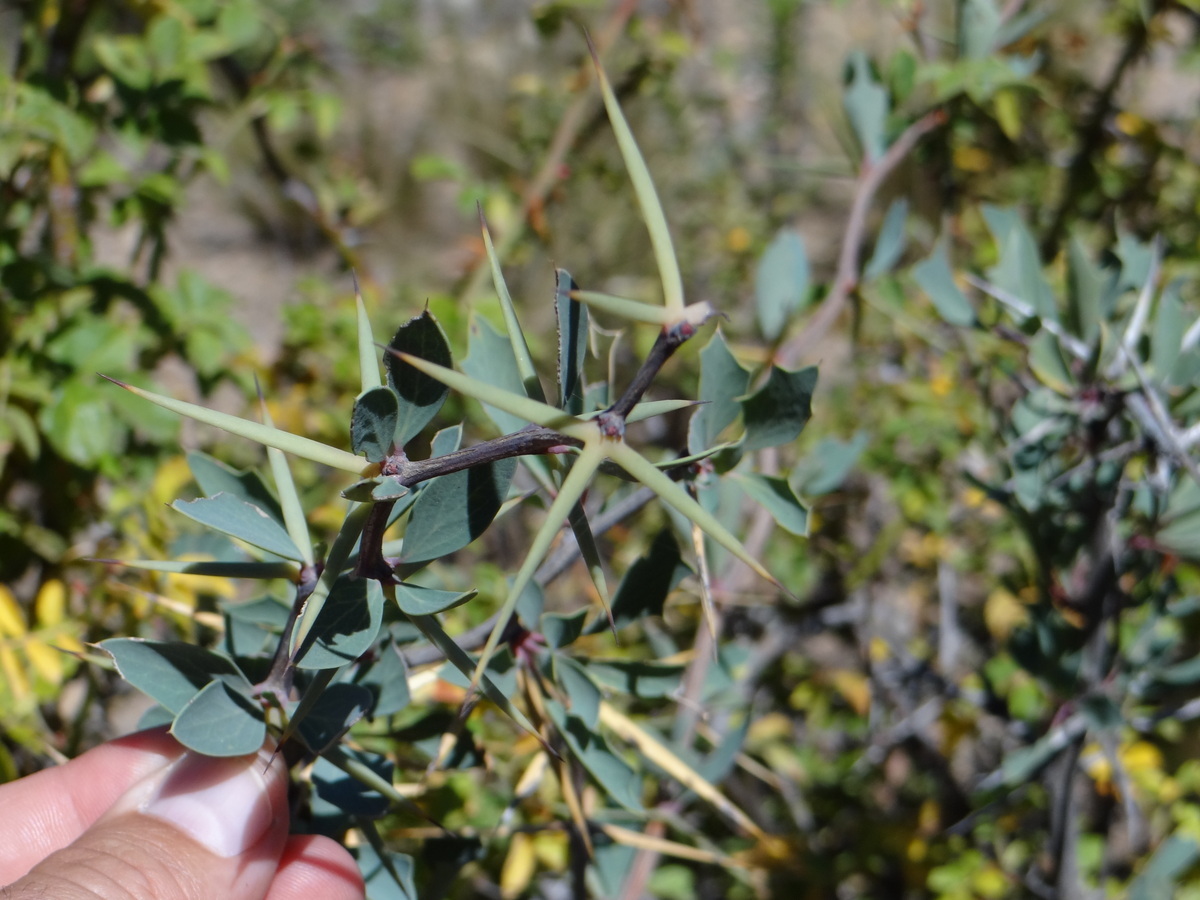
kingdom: Plantae
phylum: Tracheophyta
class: Magnoliopsida
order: Ranunculales
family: Berberidaceae
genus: Berberis
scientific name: Berberis grevilleana
